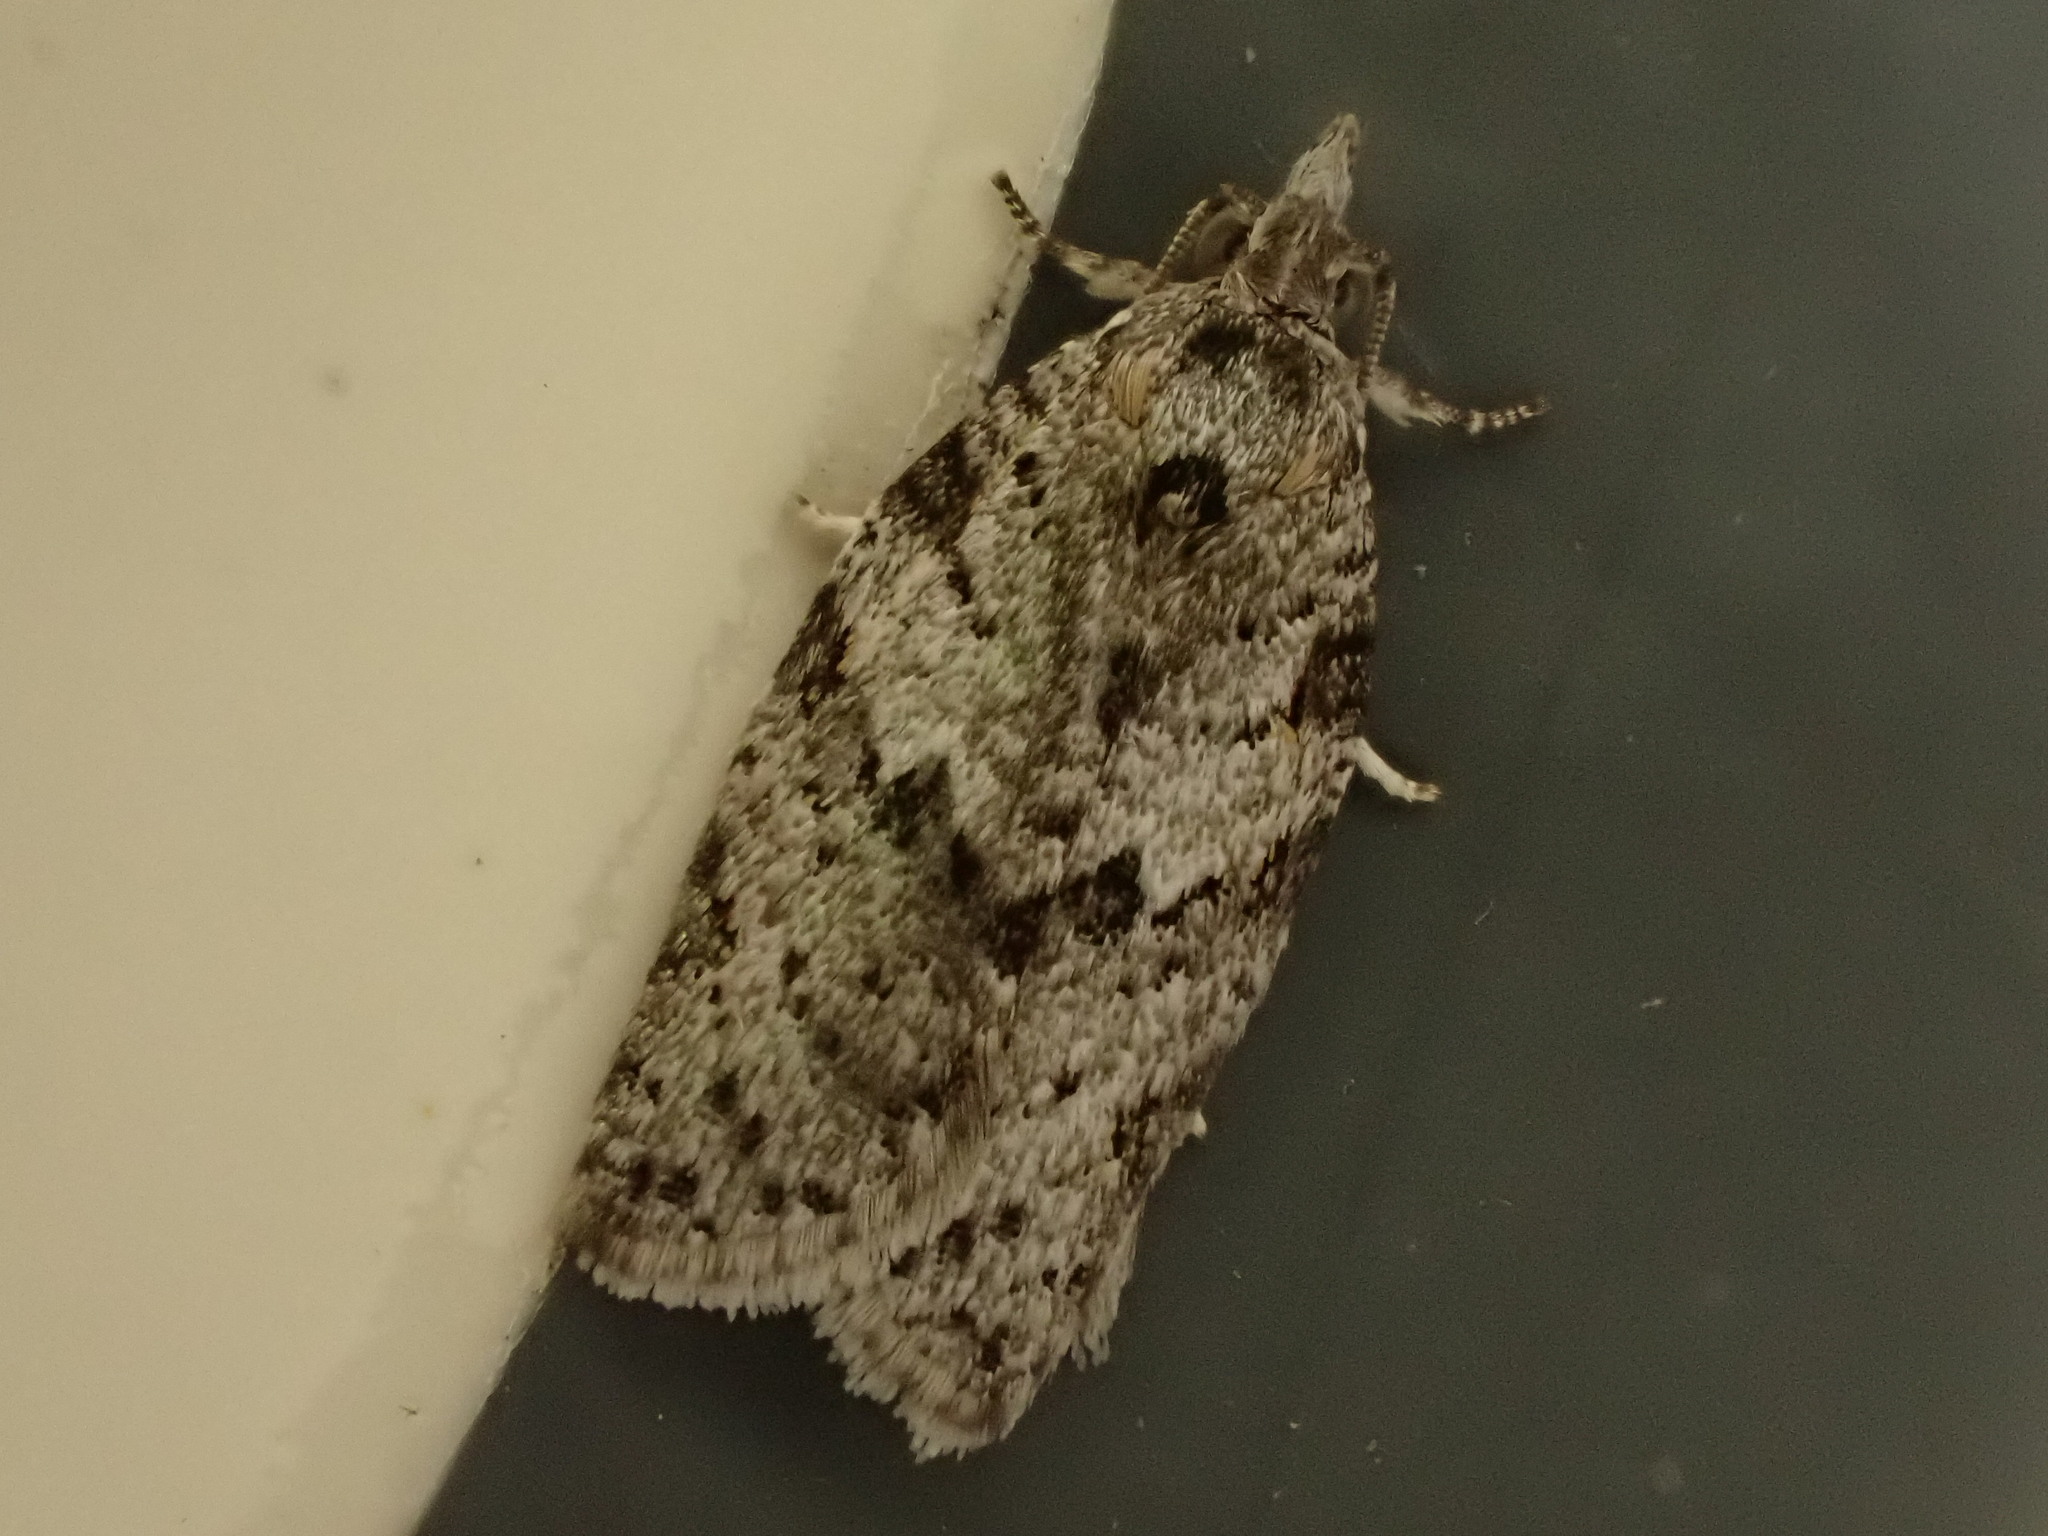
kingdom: Animalia
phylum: Arthropoda
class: Insecta
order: Lepidoptera
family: Tortricidae
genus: Isotenes
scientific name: Isotenes miserana
